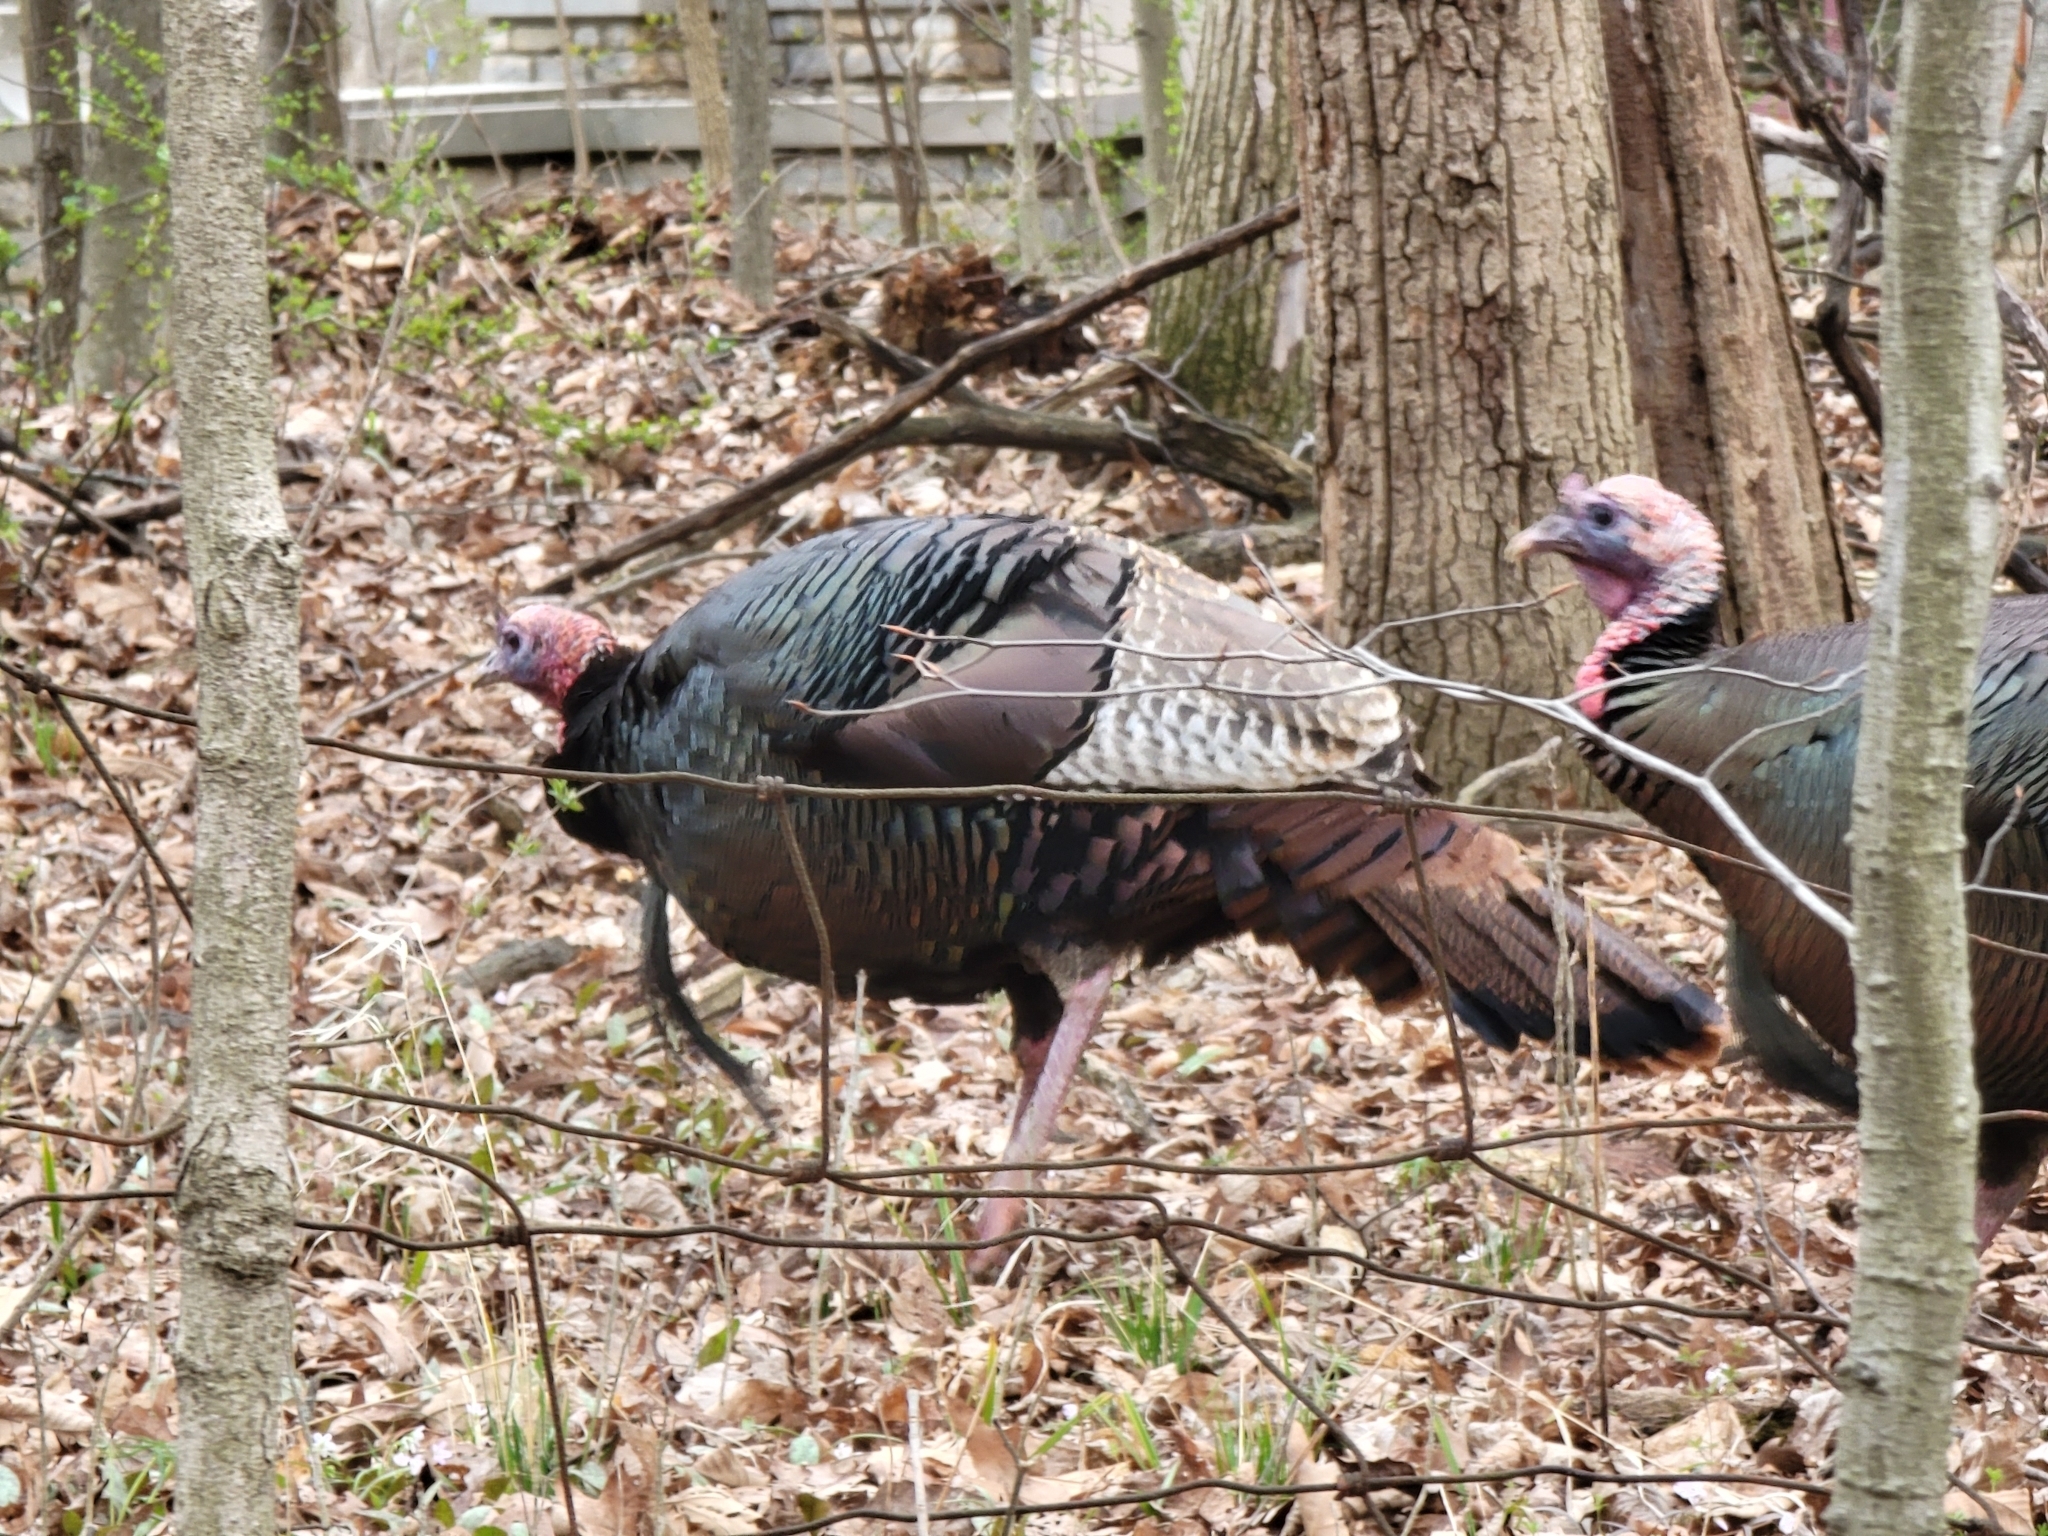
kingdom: Animalia
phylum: Chordata
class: Aves
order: Galliformes
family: Phasianidae
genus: Meleagris
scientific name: Meleagris gallopavo
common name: Wild turkey
